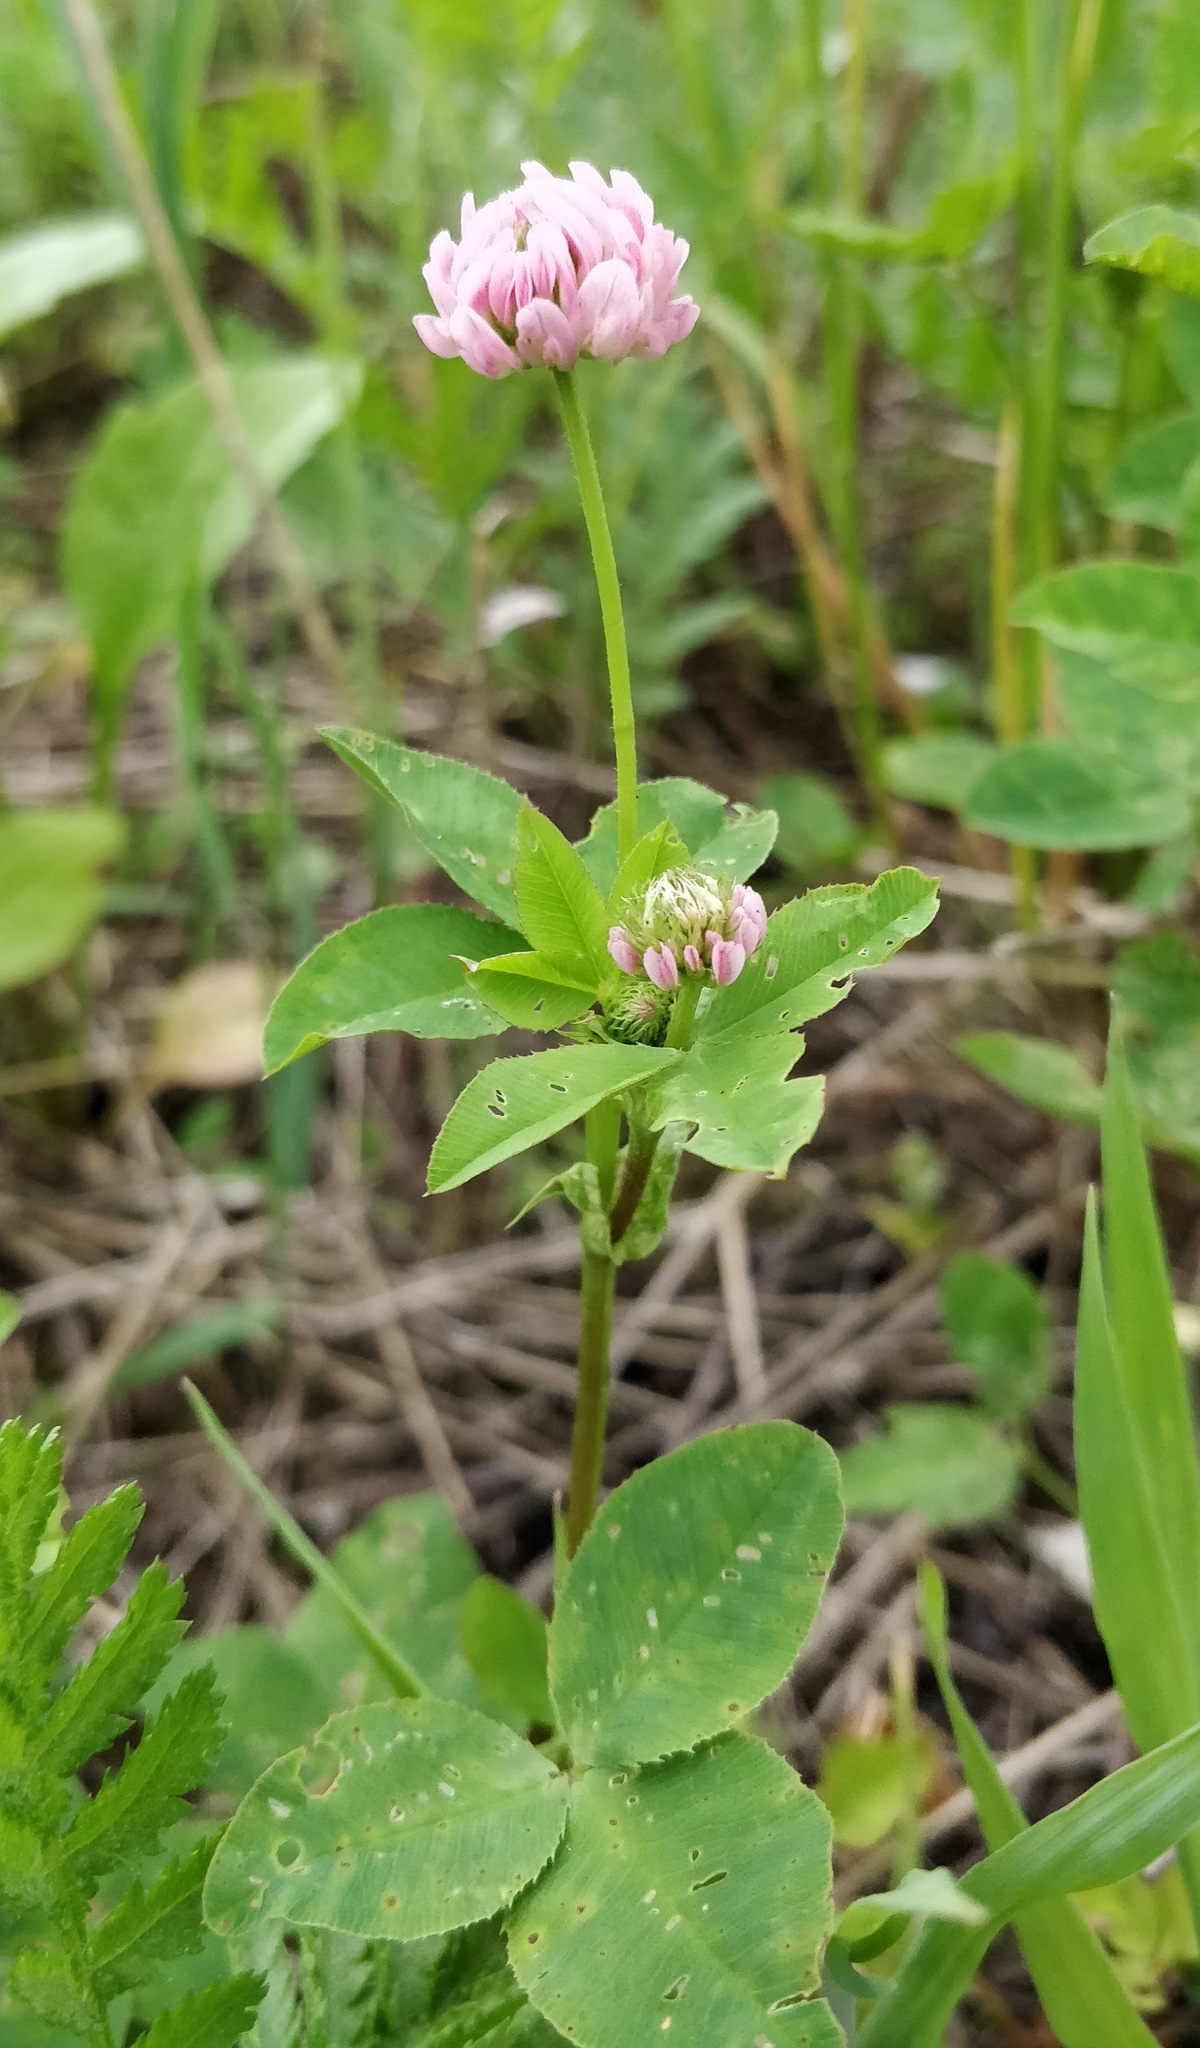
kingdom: Plantae
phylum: Tracheophyta
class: Magnoliopsida
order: Fabales
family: Fabaceae
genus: Trifolium
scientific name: Trifolium hybridum
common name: Alsike clover
